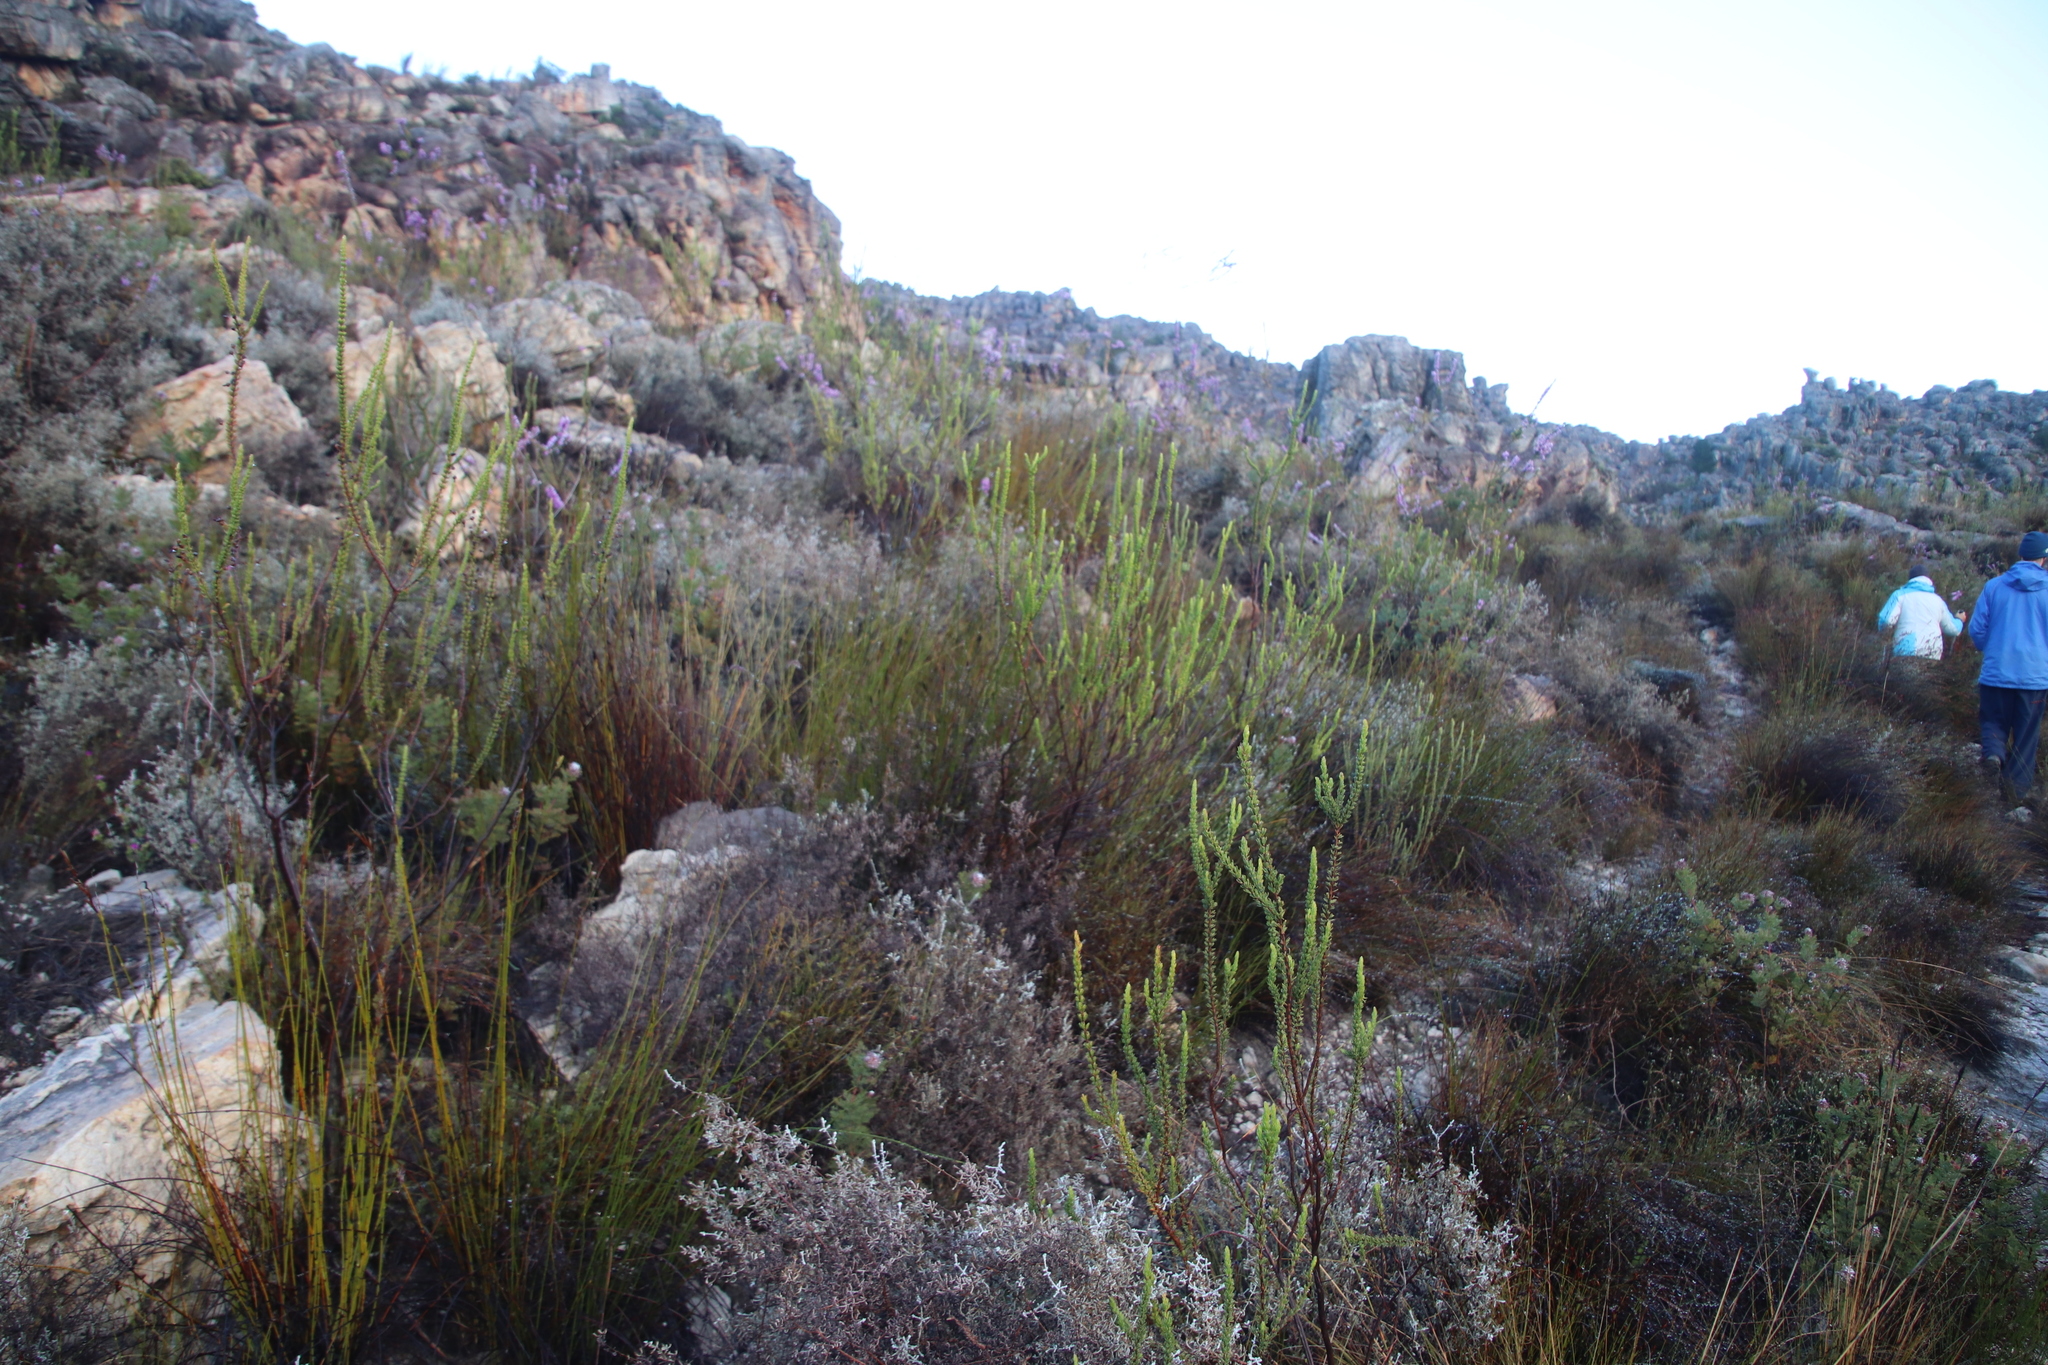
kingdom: Plantae
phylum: Tracheophyta
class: Magnoliopsida
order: Ericales
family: Ericaceae
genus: Erica
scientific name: Erica plukenetii
